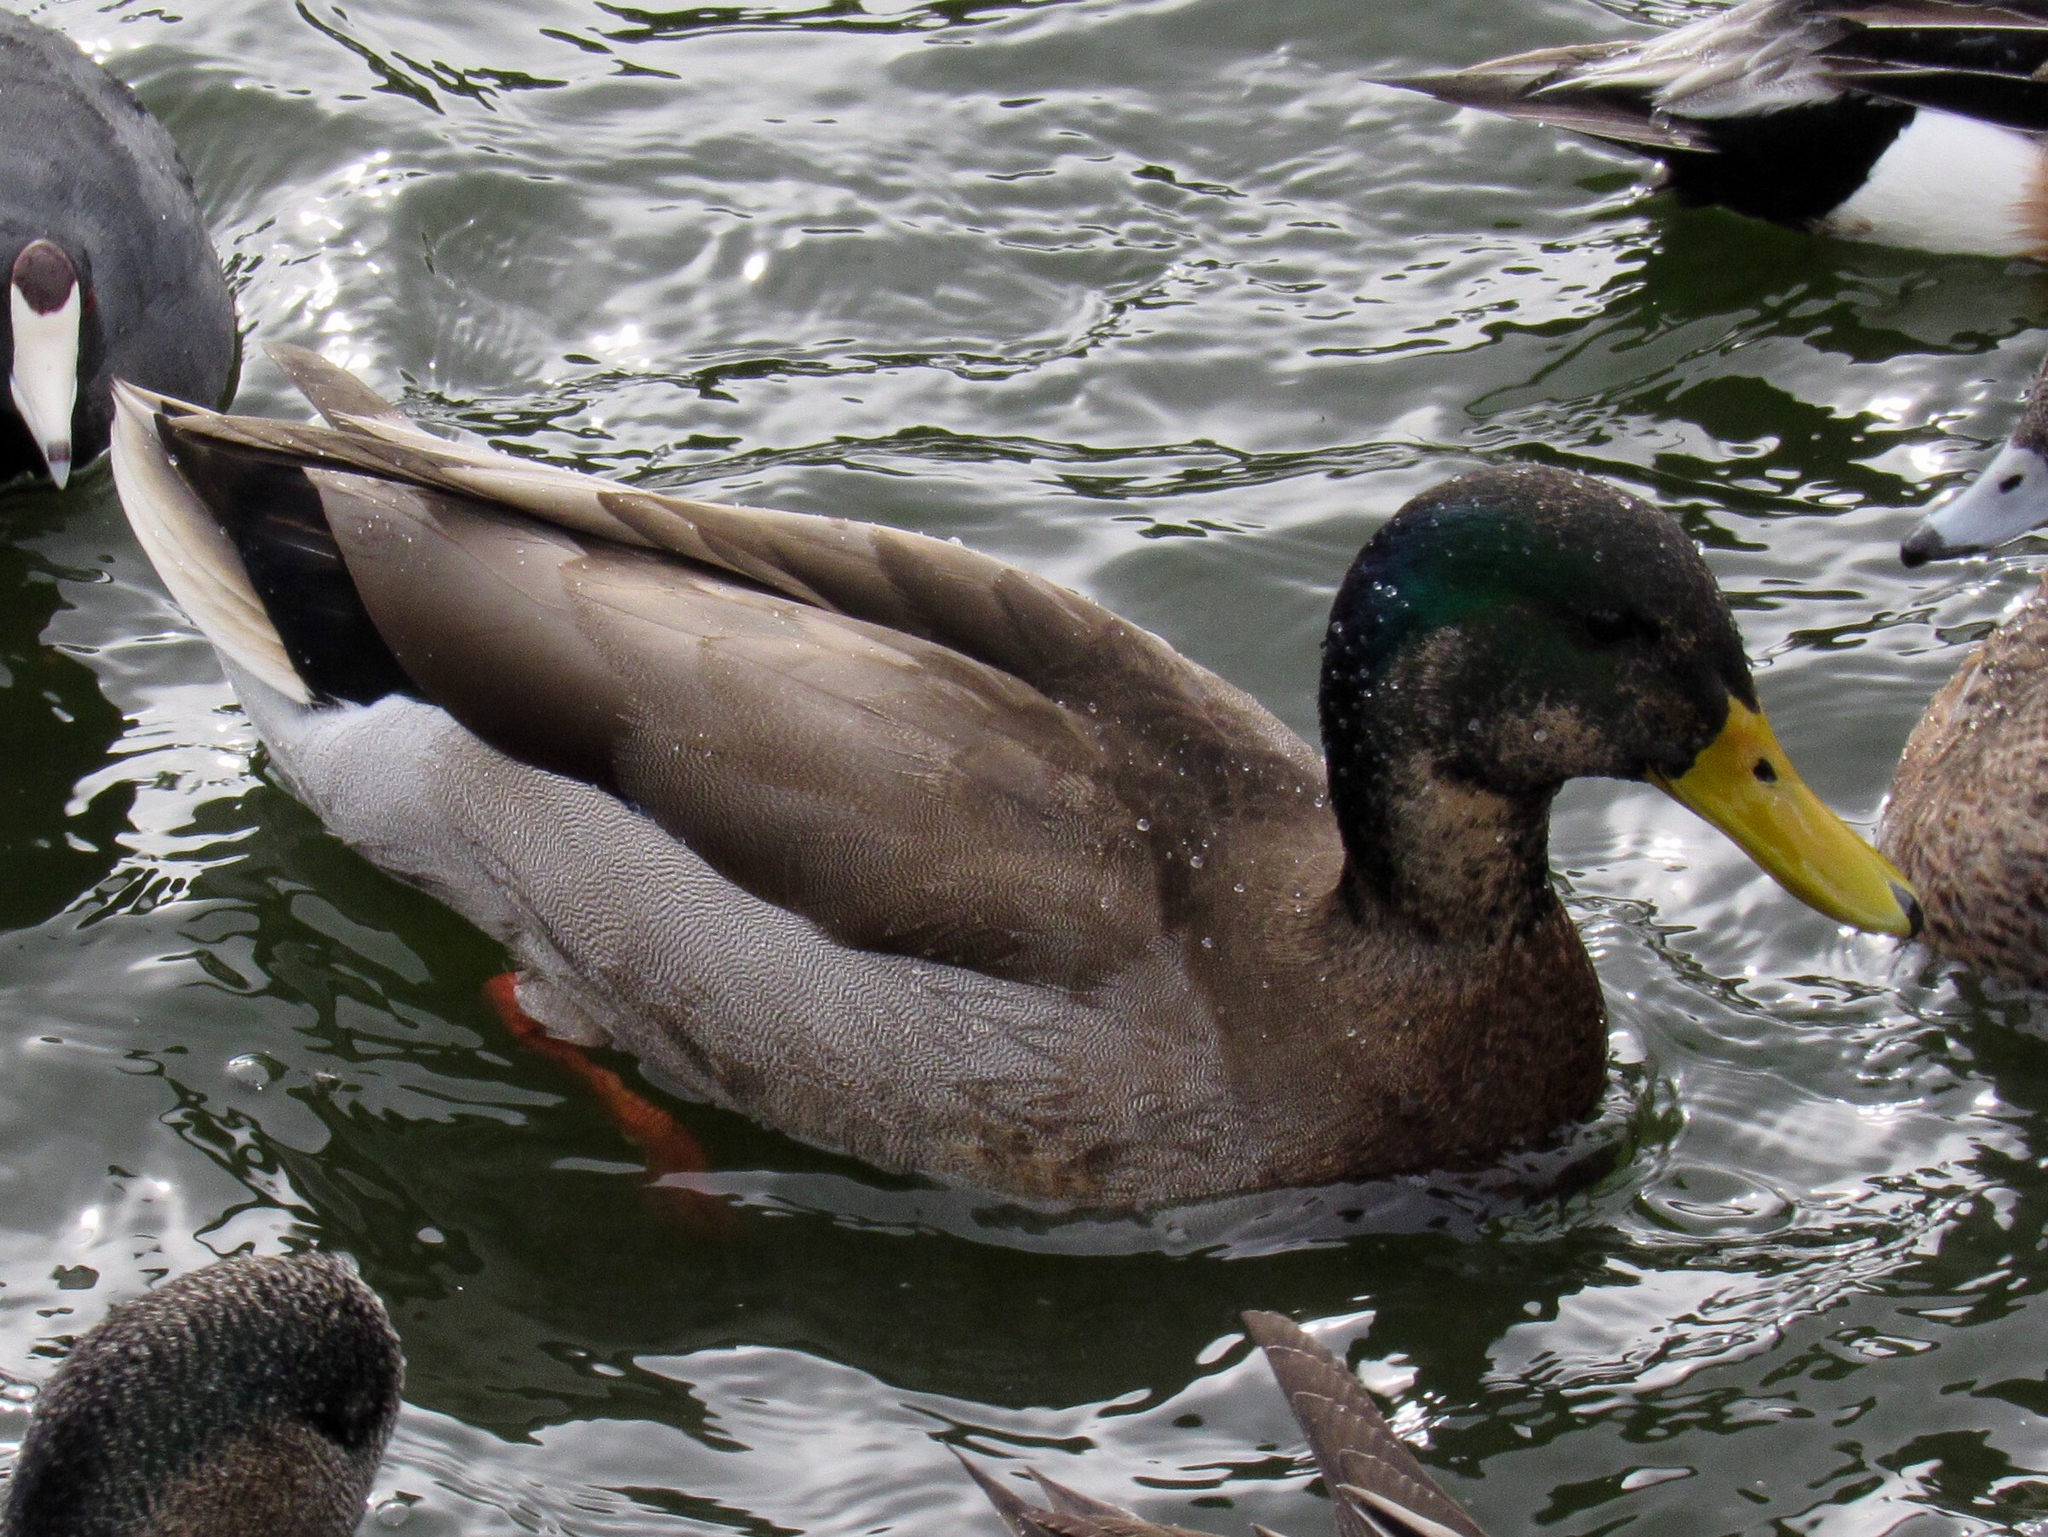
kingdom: Animalia
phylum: Chordata
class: Aves
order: Anseriformes
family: Anatidae
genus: Anas
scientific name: Anas platyrhynchos
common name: Mallard
